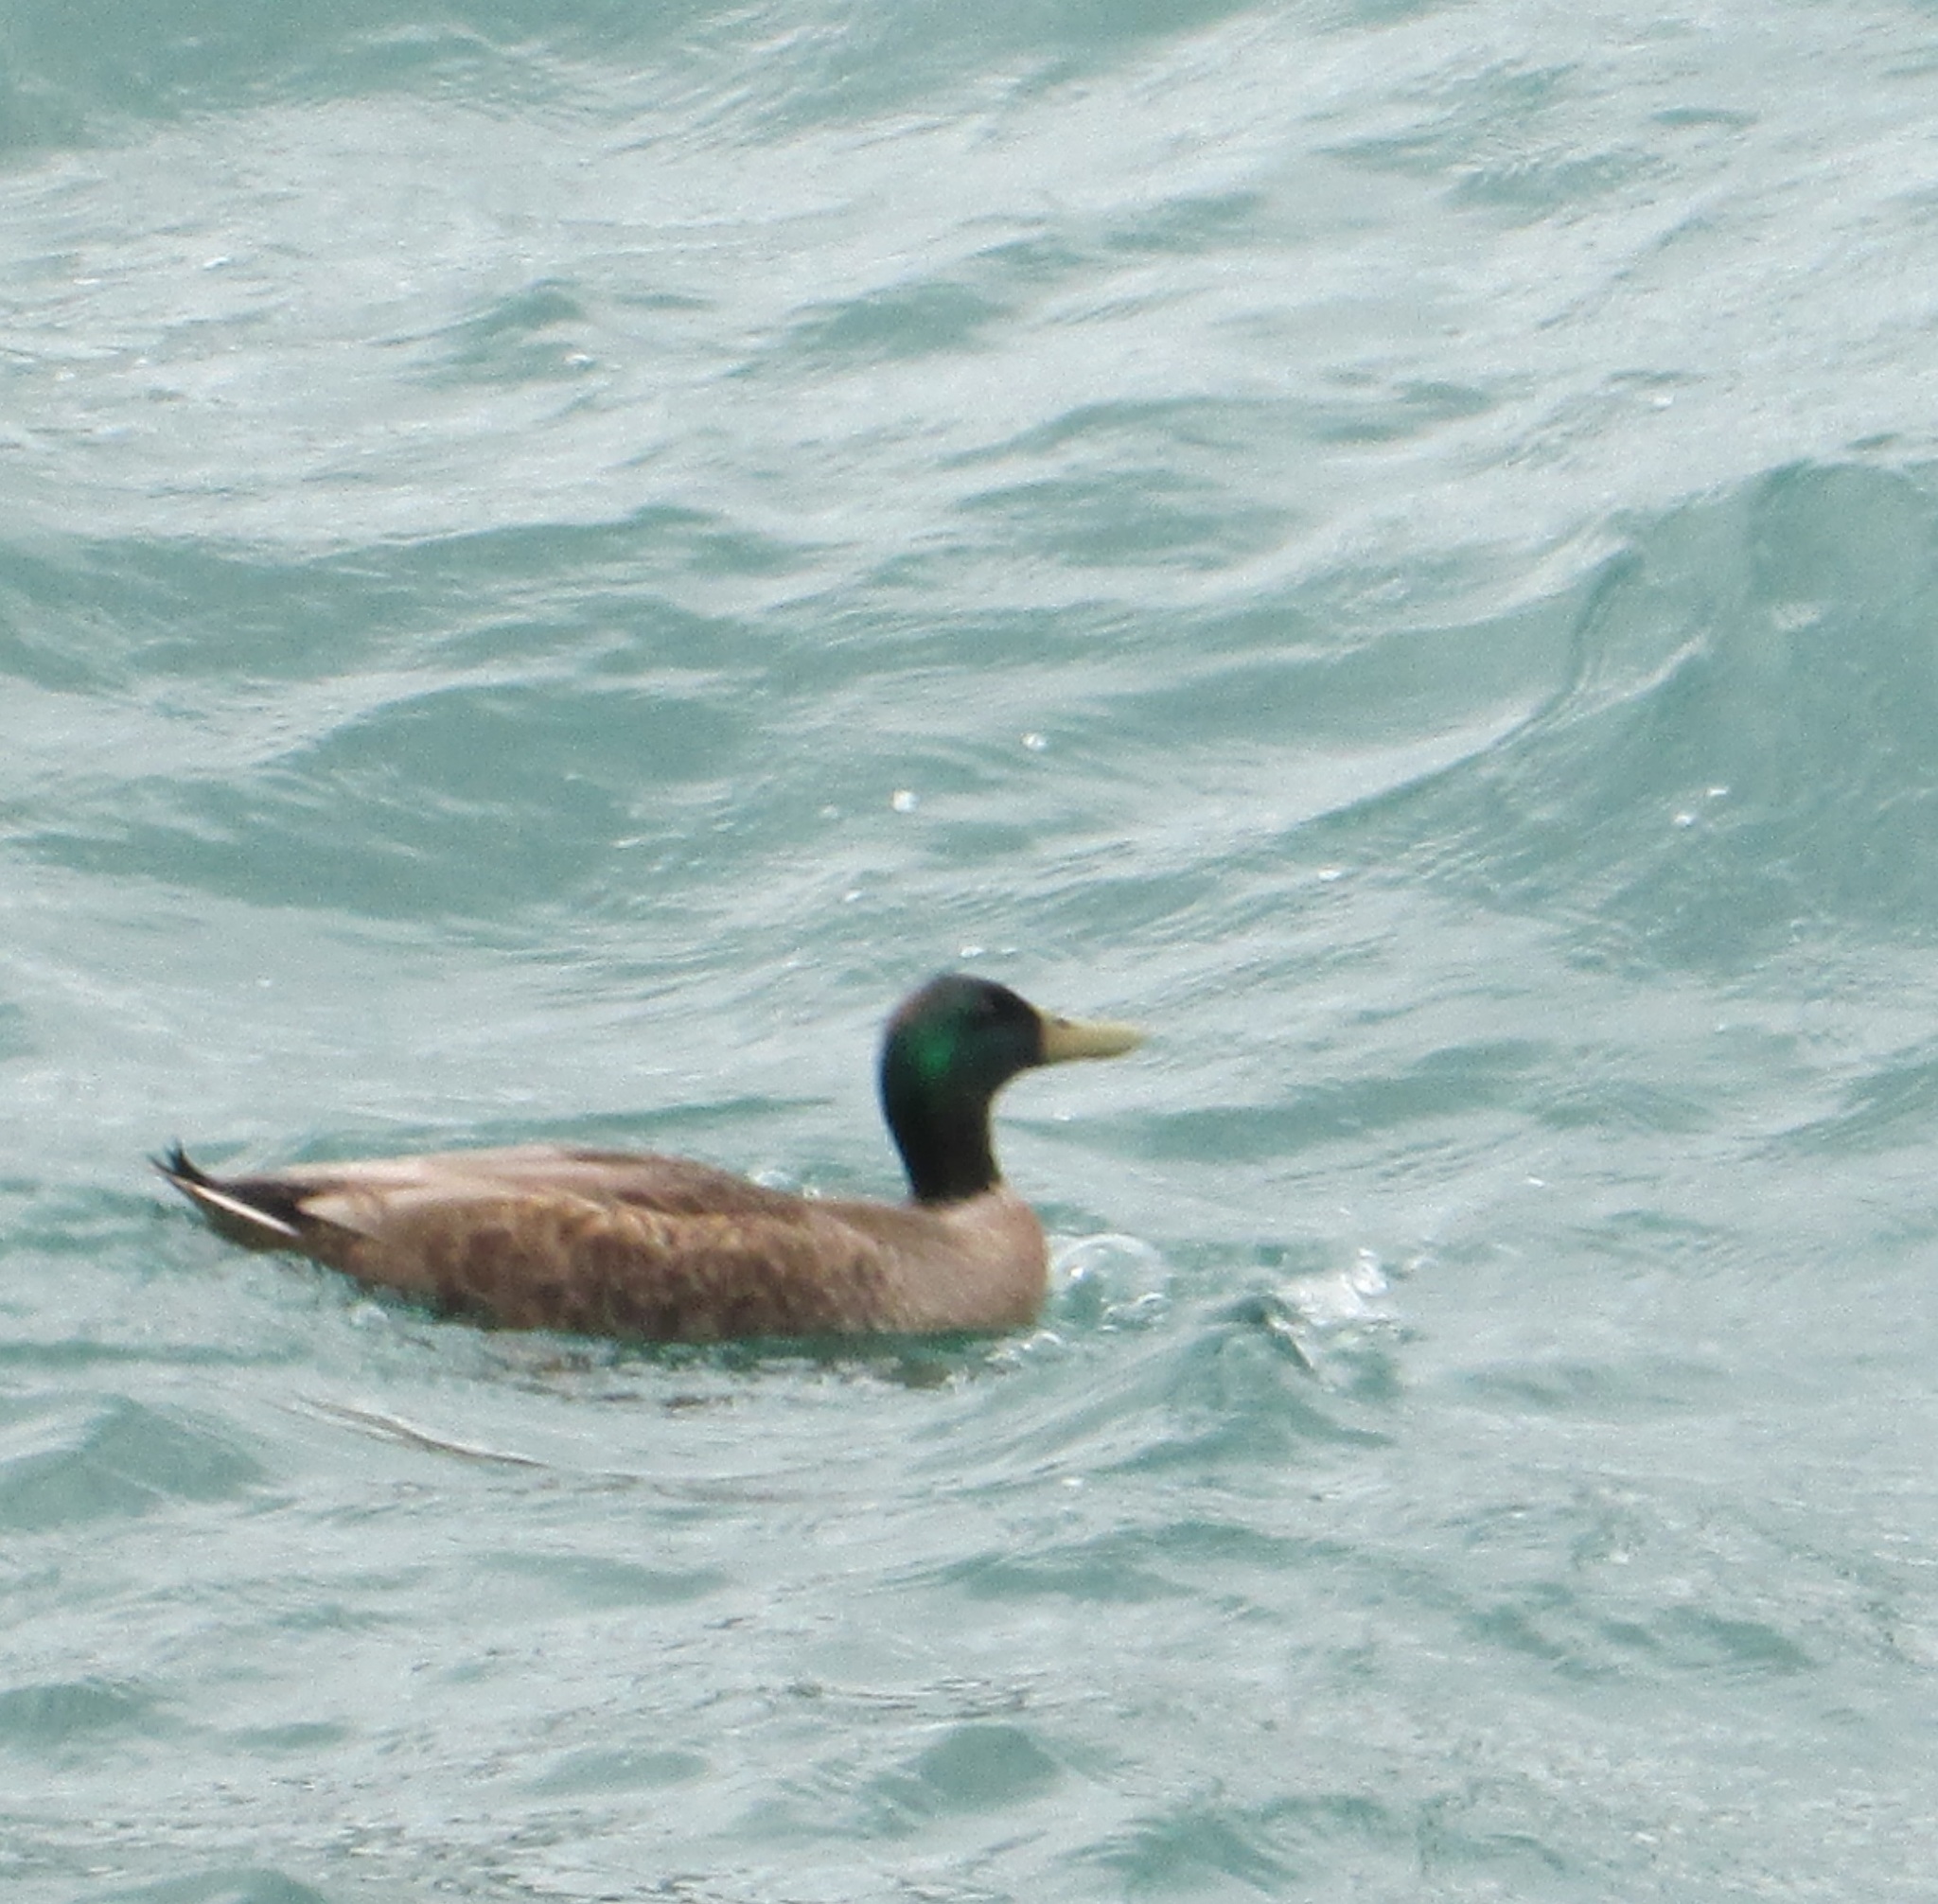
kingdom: Animalia
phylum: Chordata
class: Aves
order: Anseriformes
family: Anatidae
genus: Anas
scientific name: Anas platyrhynchos
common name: Mallard
